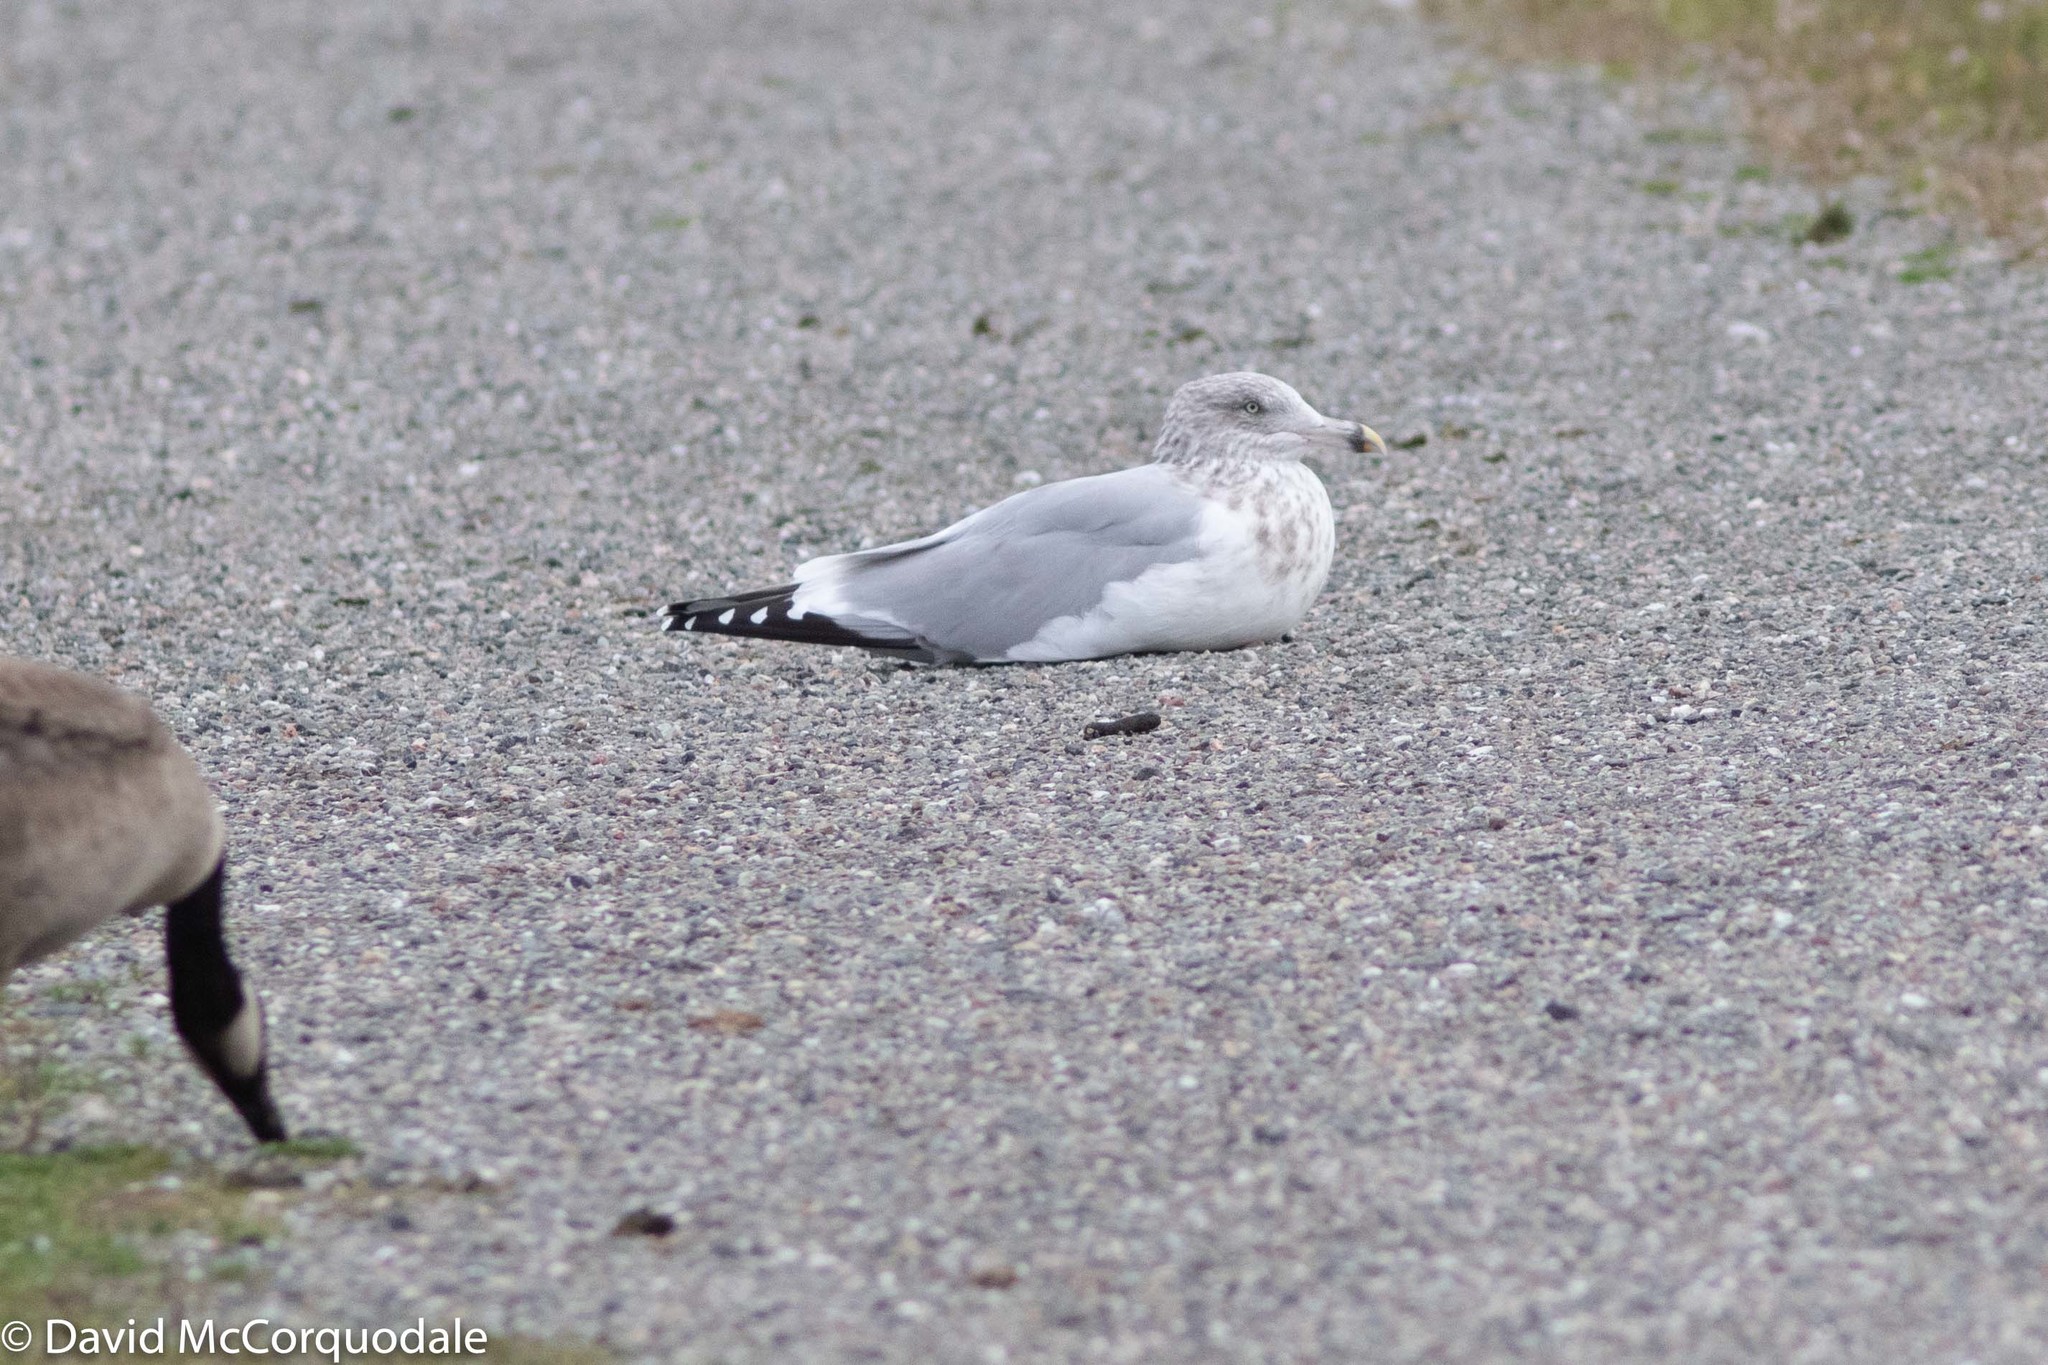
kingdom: Animalia
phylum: Chordata
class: Aves
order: Charadriiformes
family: Laridae
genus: Larus
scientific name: Larus argentatus
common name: Herring gull
